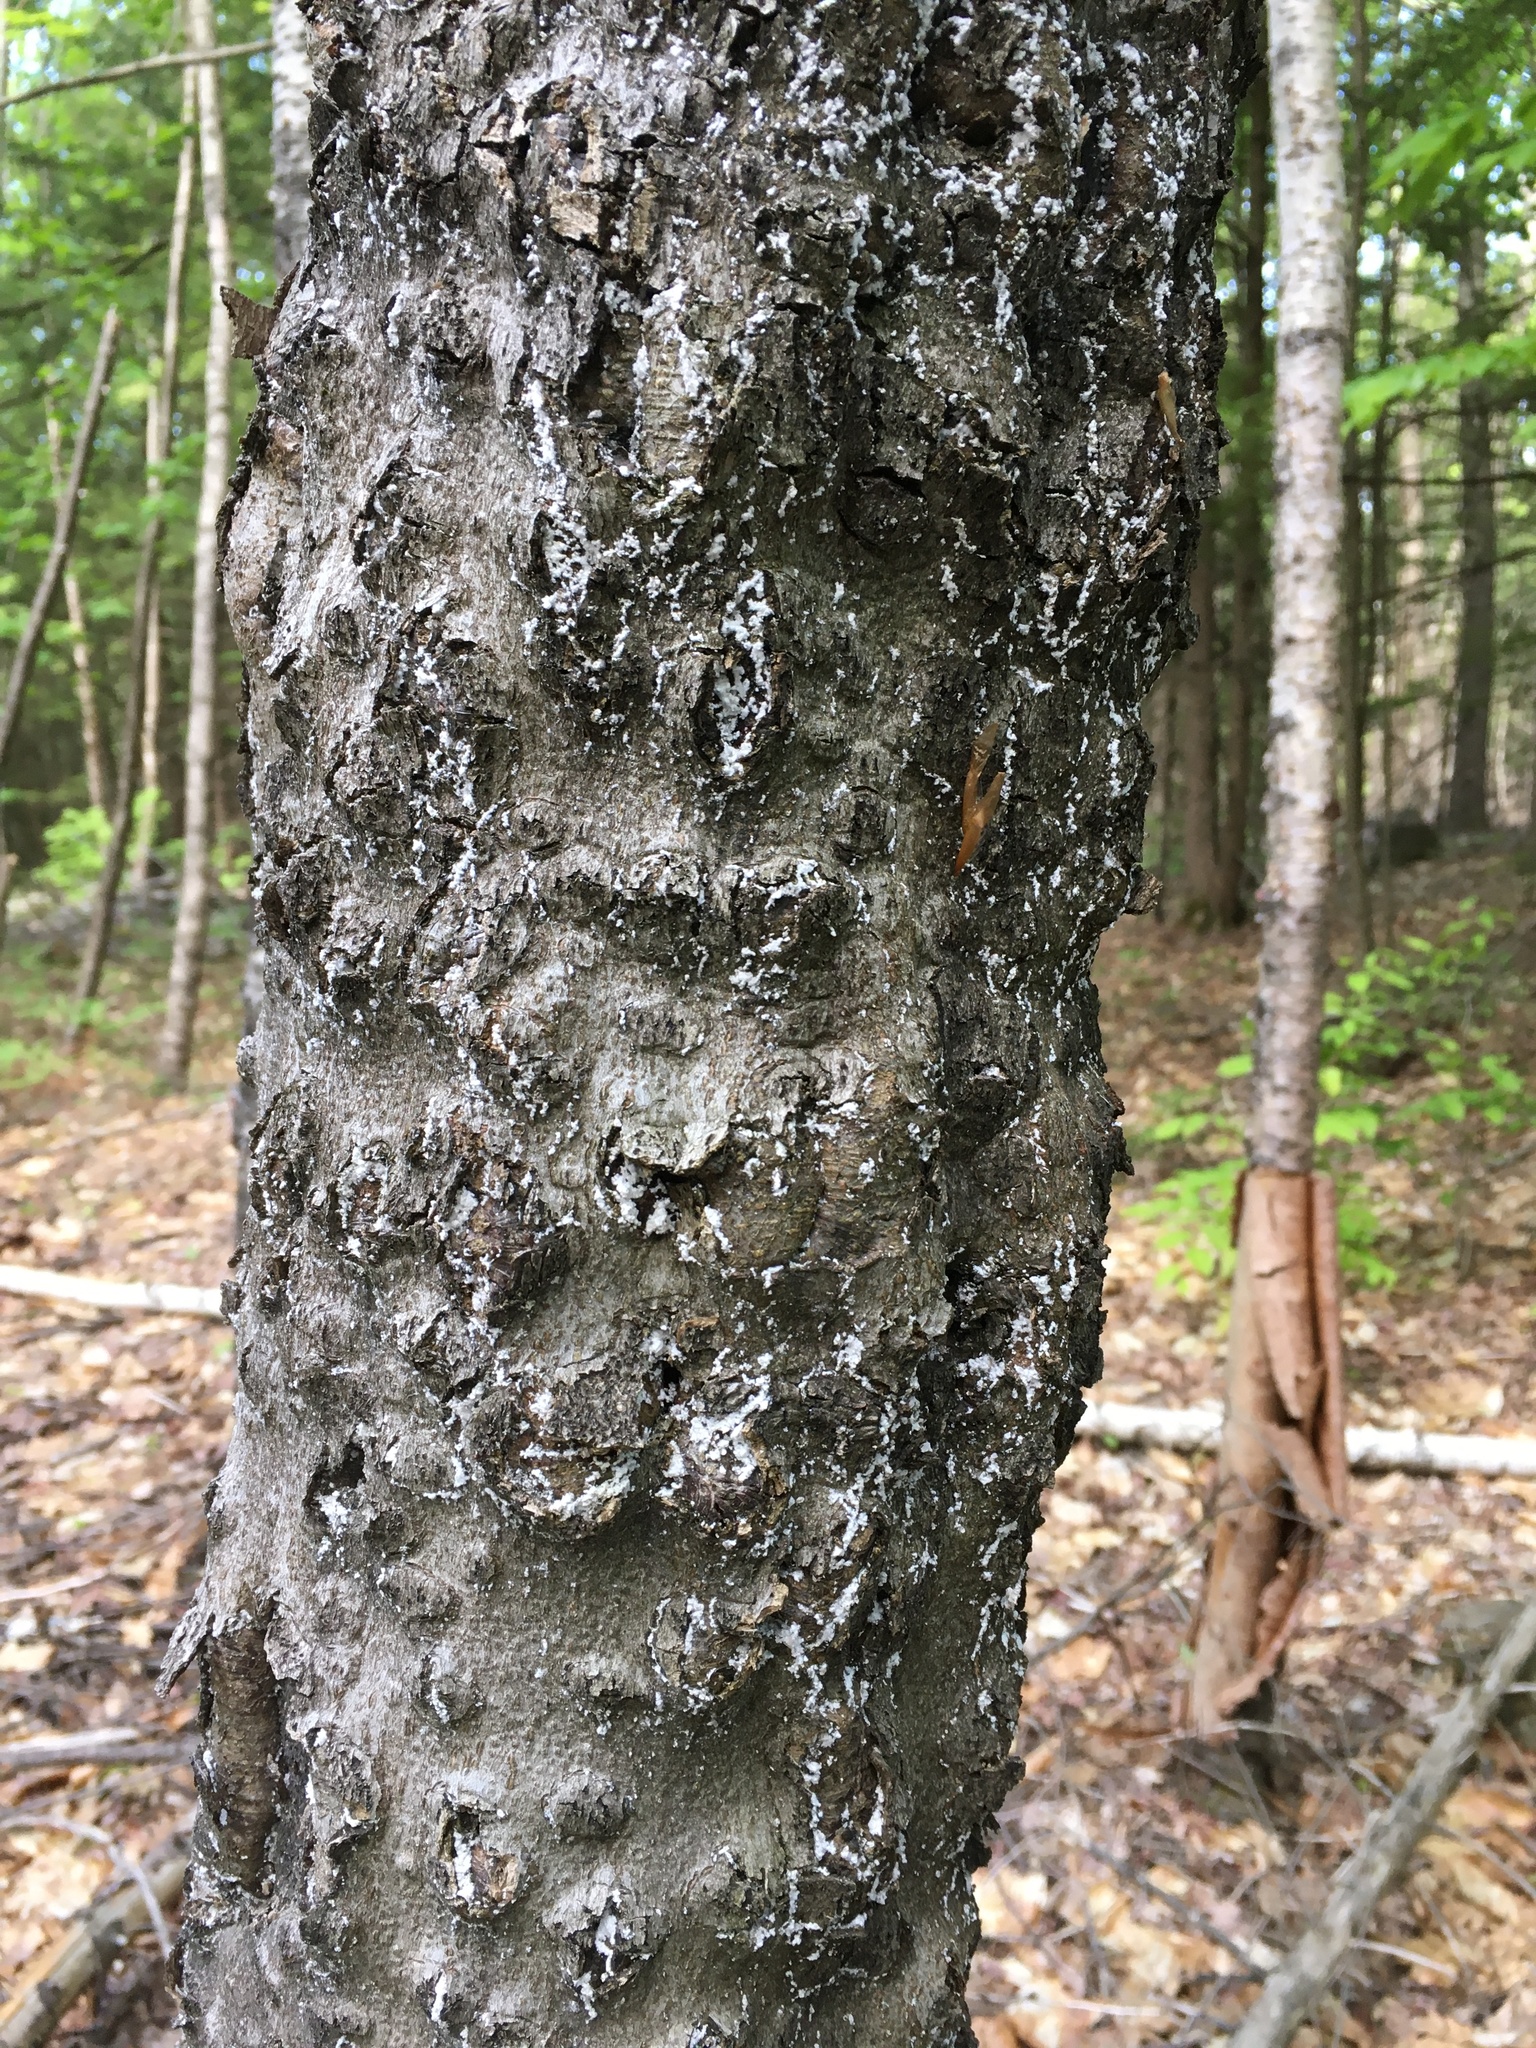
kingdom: Animalia
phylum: Arthropoda
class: Insecta
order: Hemiptera
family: Eriococcidae
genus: Cryptococcus
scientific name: Cryptococcus fagisuga
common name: Beech scale
